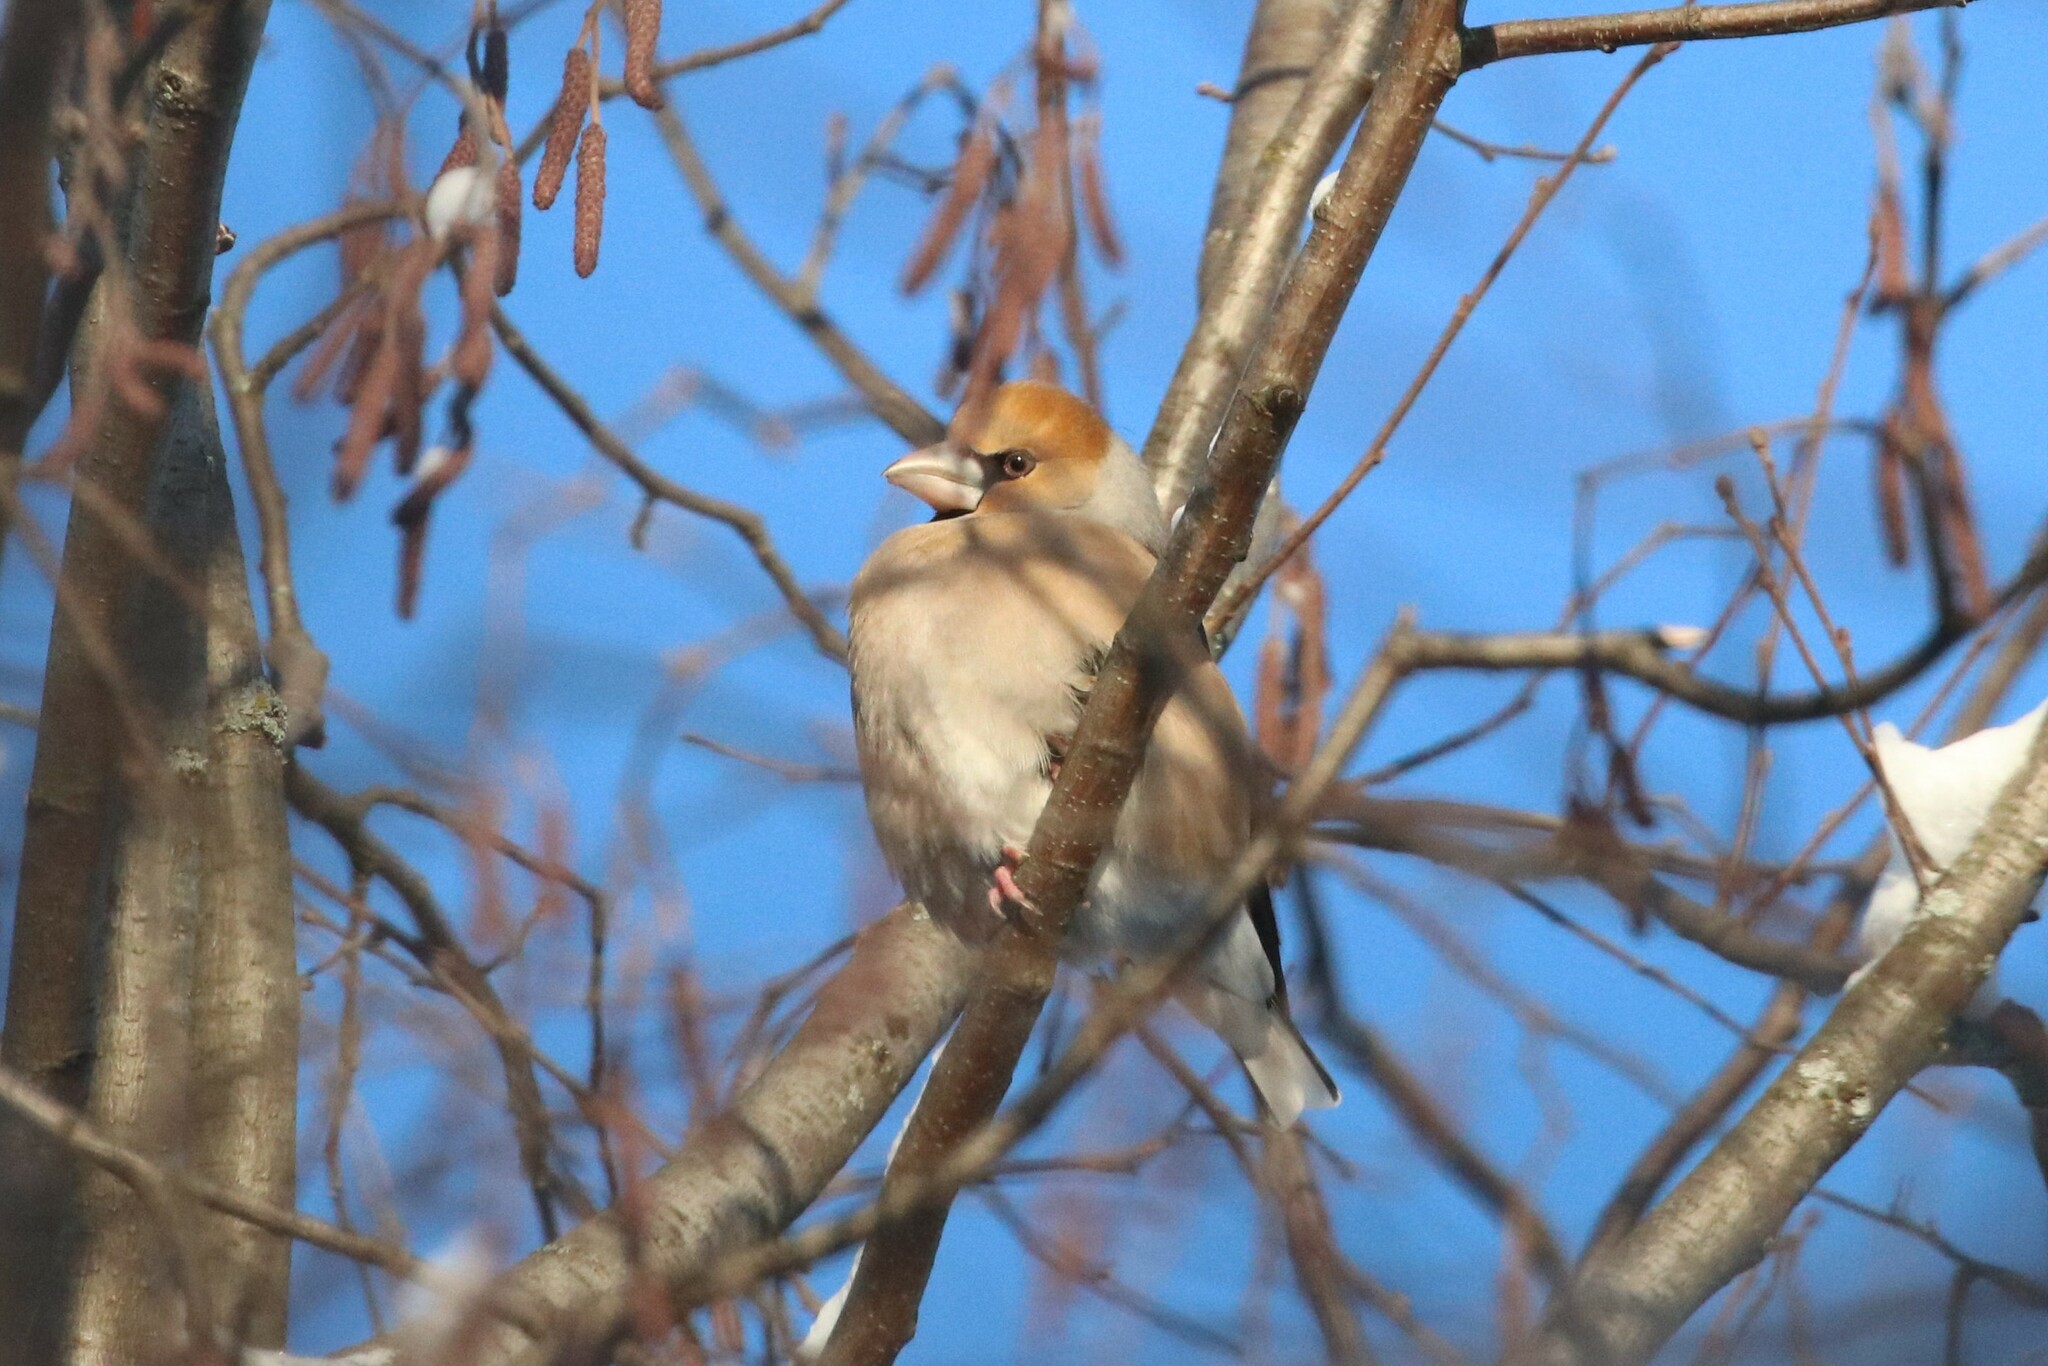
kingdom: Animalia
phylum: Chordata
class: Aves
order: Passeriformes
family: Fringillidae
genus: Coccothraustes
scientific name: Coccothraustes coccothraustes
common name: Hawfinch
